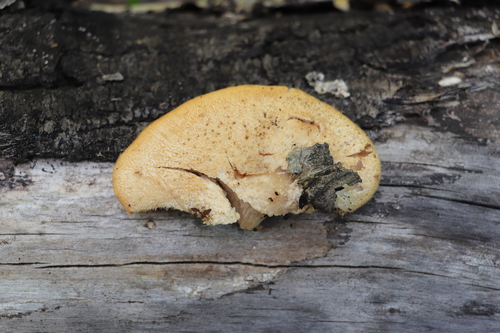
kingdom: Fungi
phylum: Basidiomycota
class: Agaricomycetes
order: Polyporales
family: Polyporaceae
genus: Lentinus
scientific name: Lentinus pilososquamulosus
